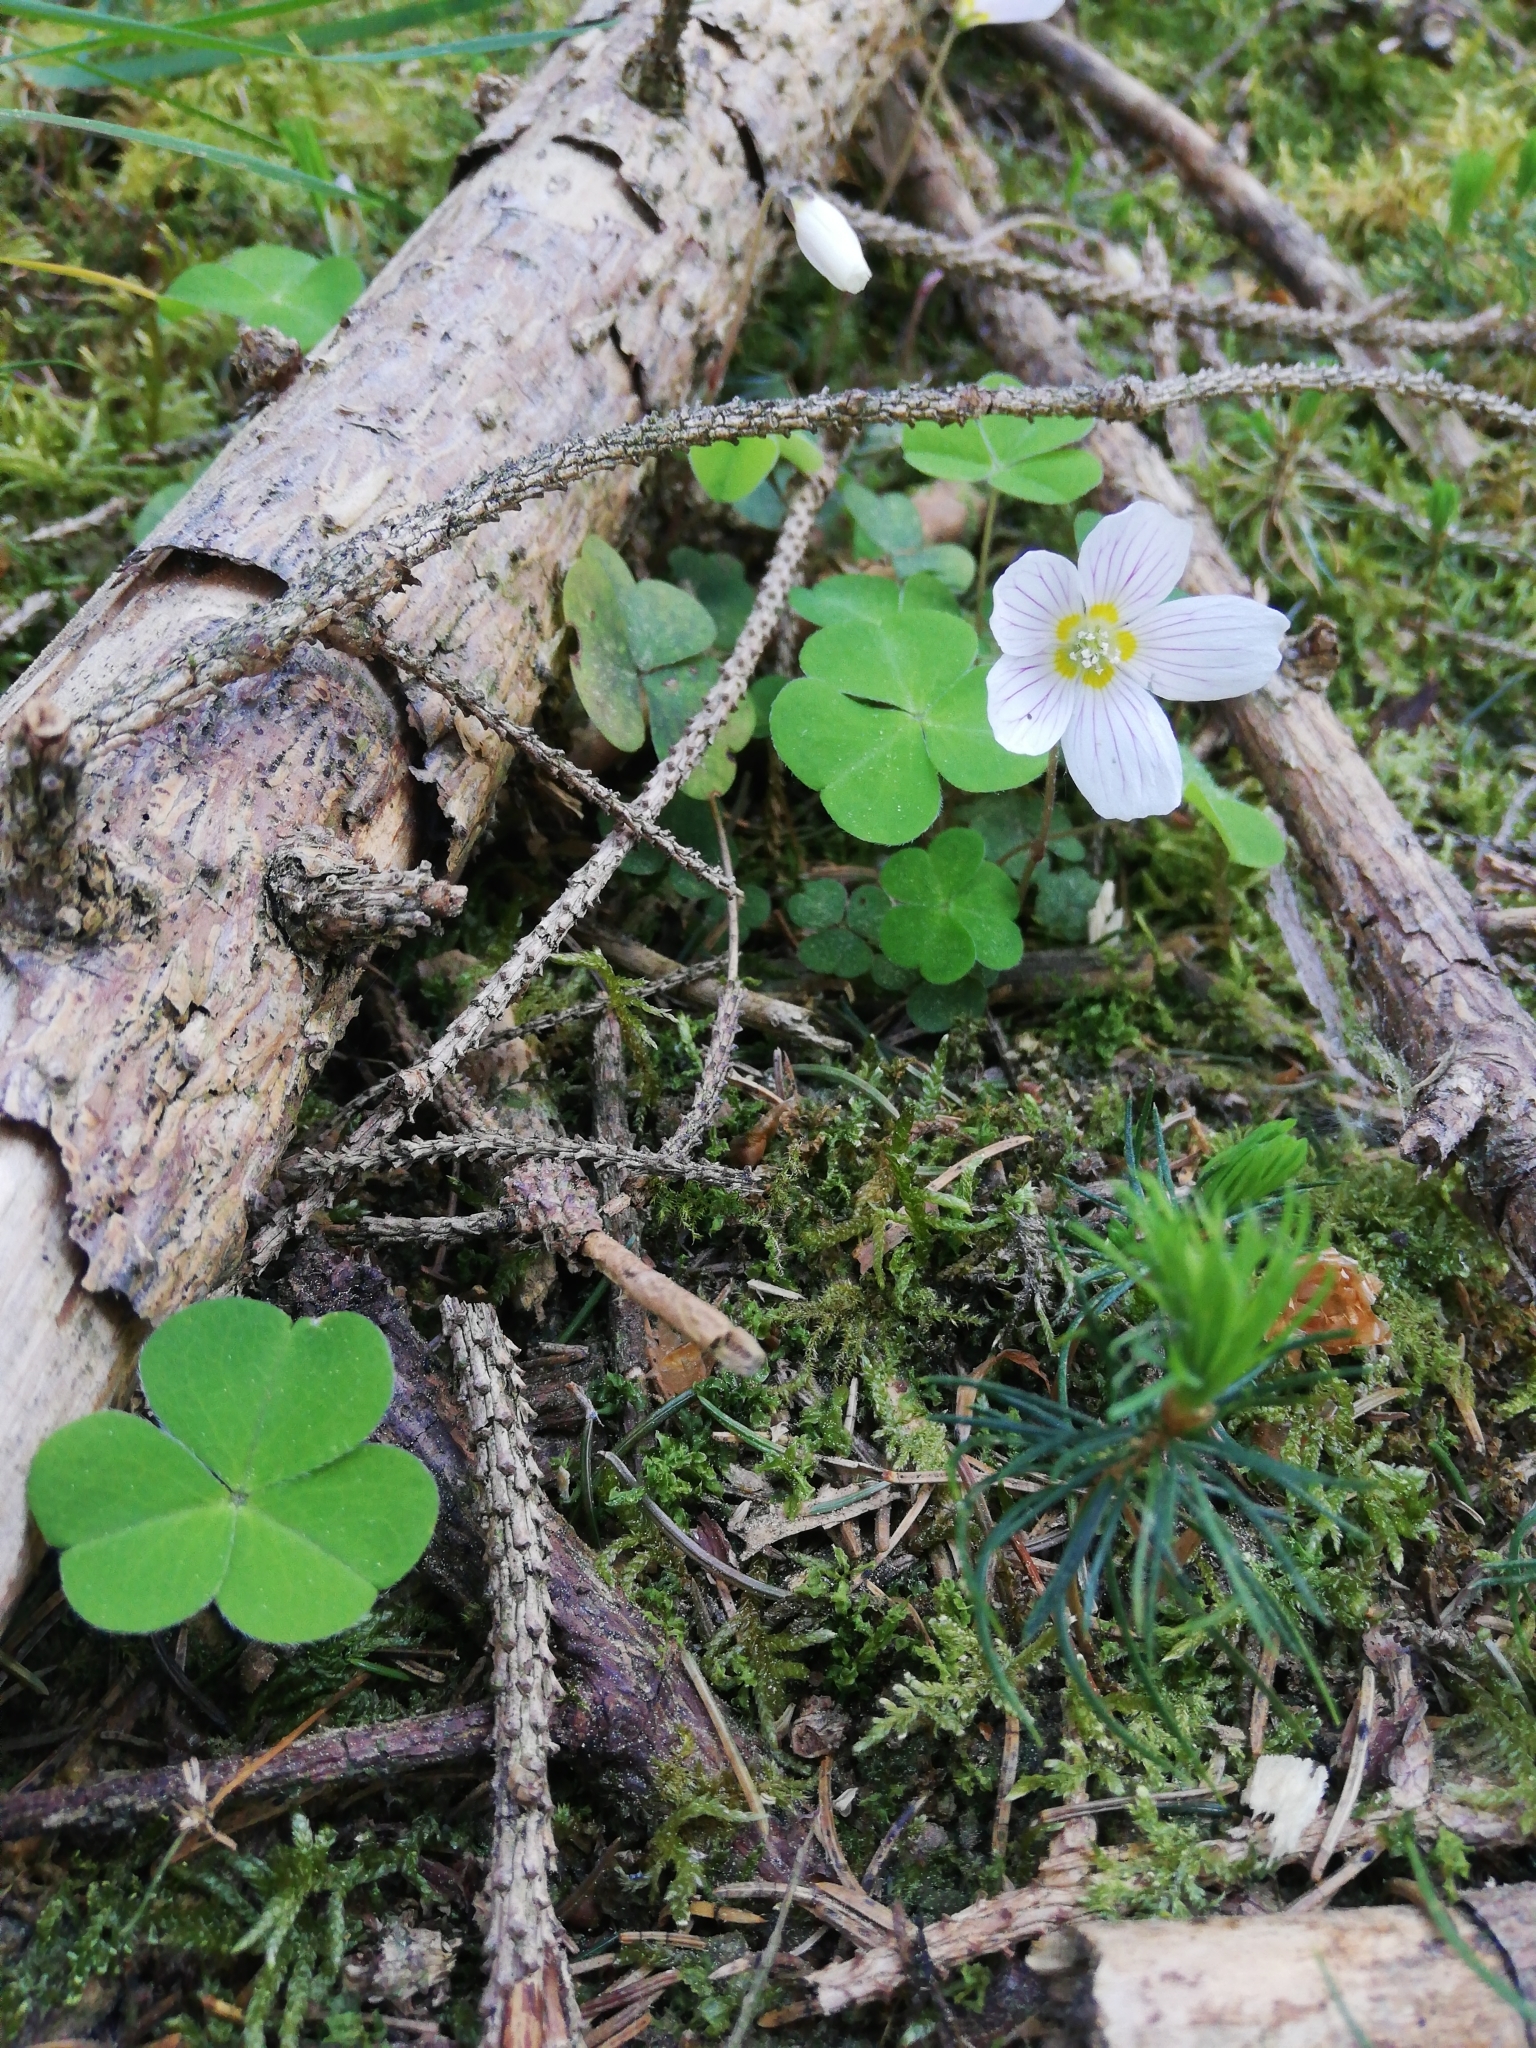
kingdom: Plantae
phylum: Tracheophyta
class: Magnoliopsida
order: Oxalidales
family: Oxalidaceae
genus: Oxalis
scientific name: Oxalis acetosella
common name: Wood-sorrel
